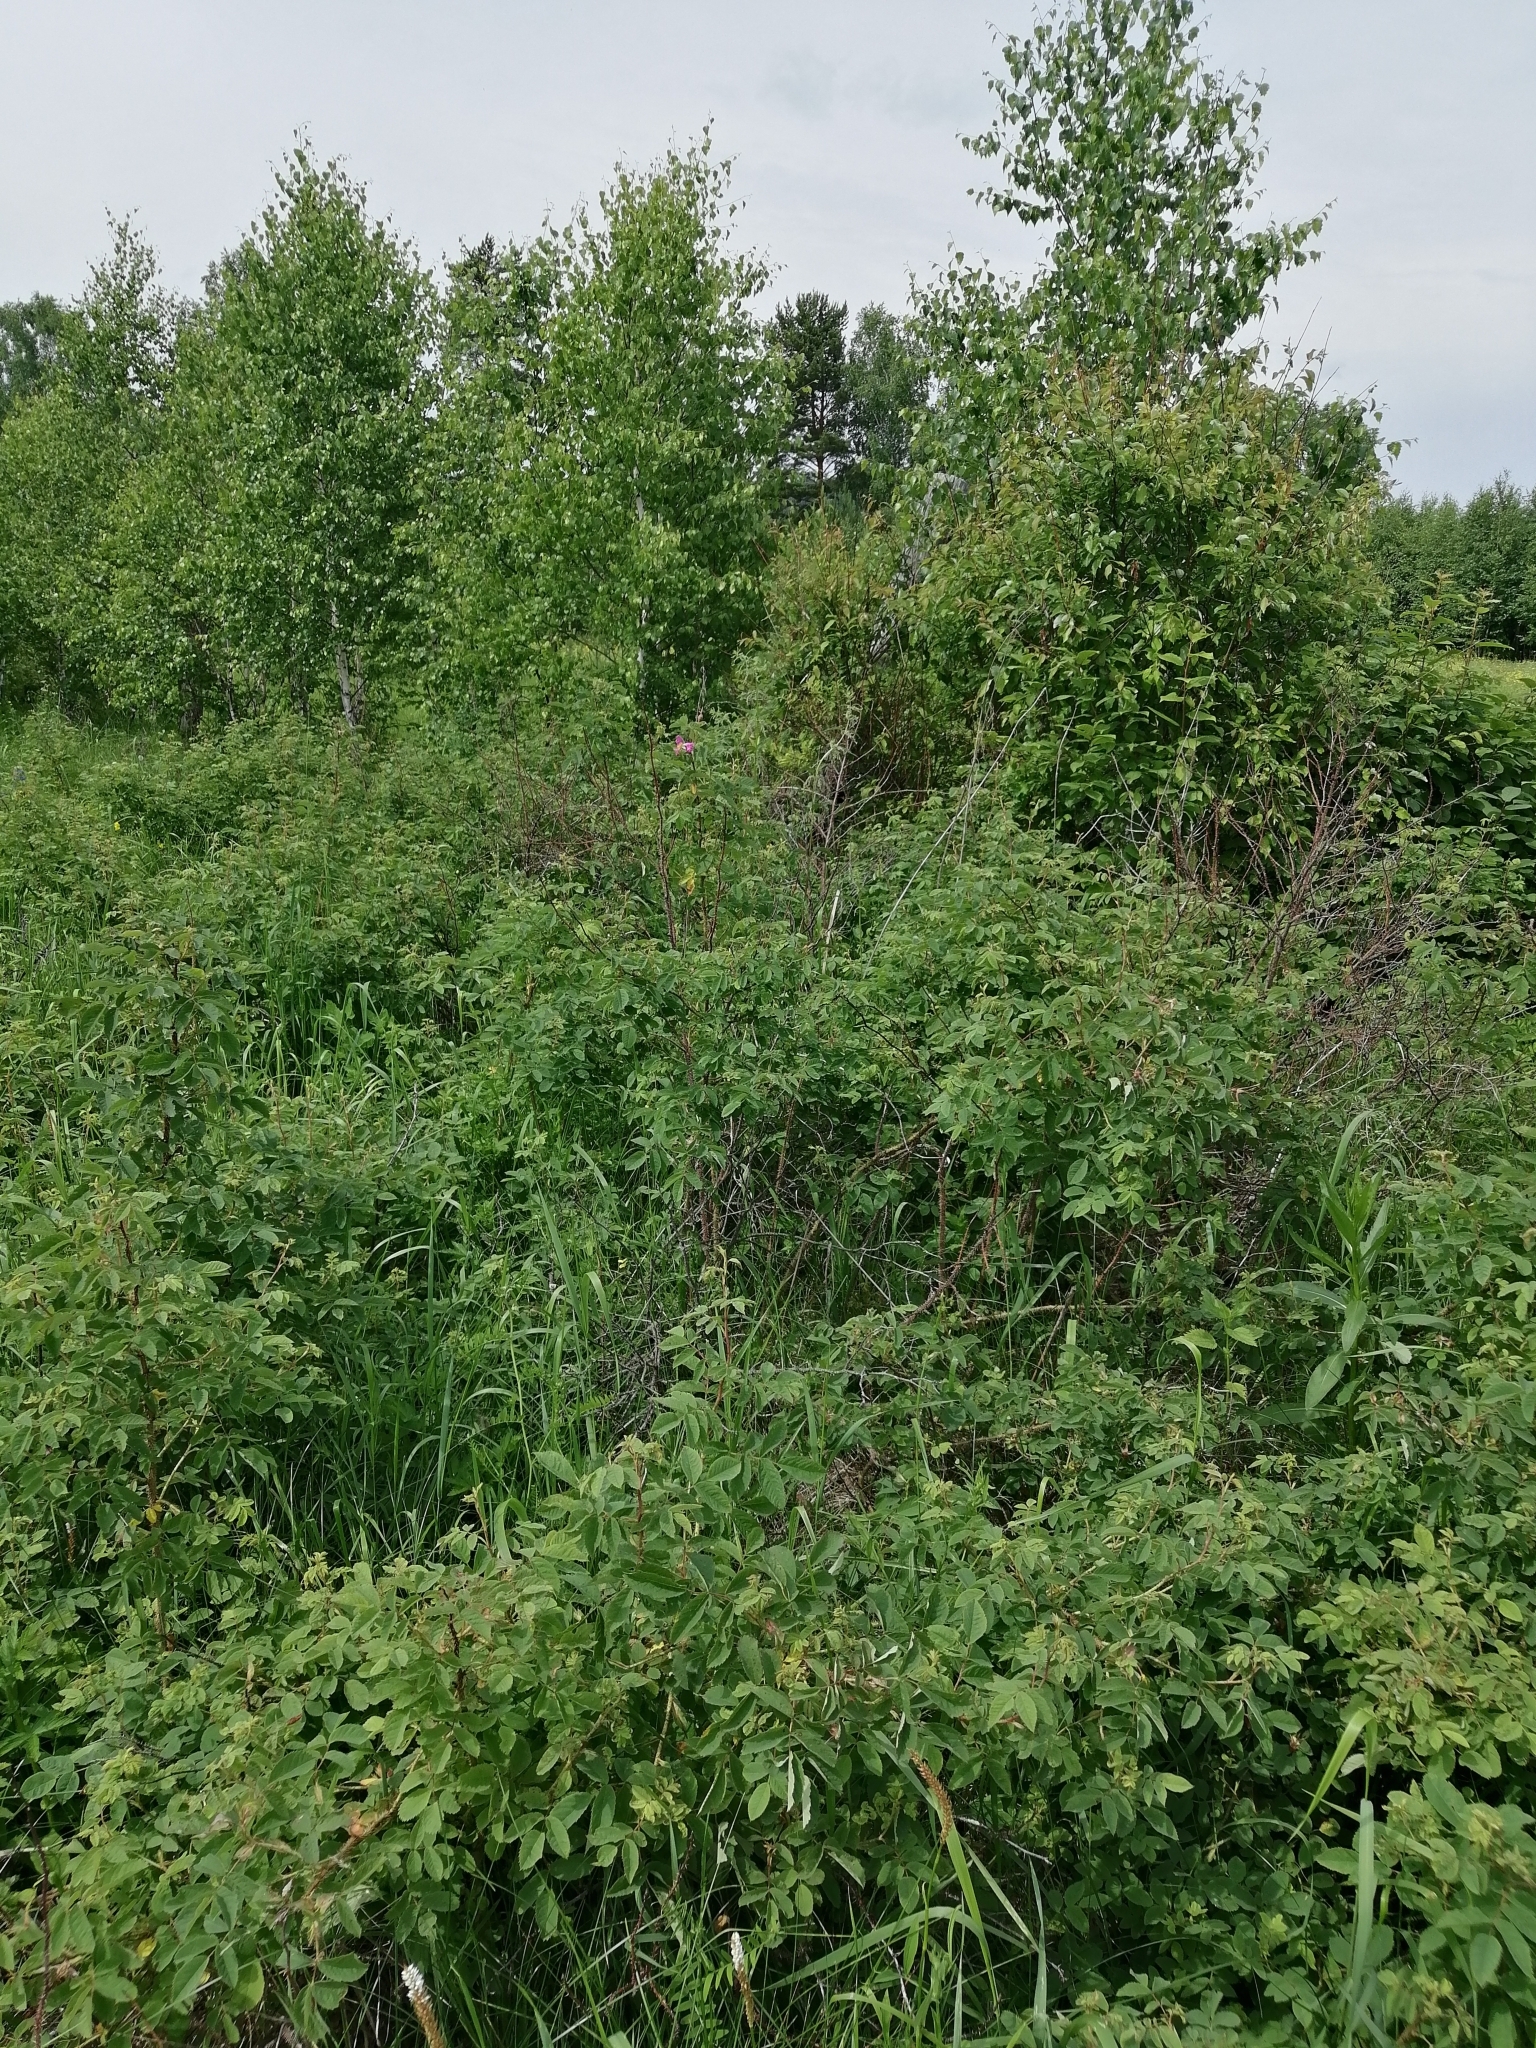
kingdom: Plantae
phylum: Tracheophyta
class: Magnoliopsida
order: Rosales
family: Rosaceae
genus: Rosa
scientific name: Rosa acicularis
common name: Prickly rose
